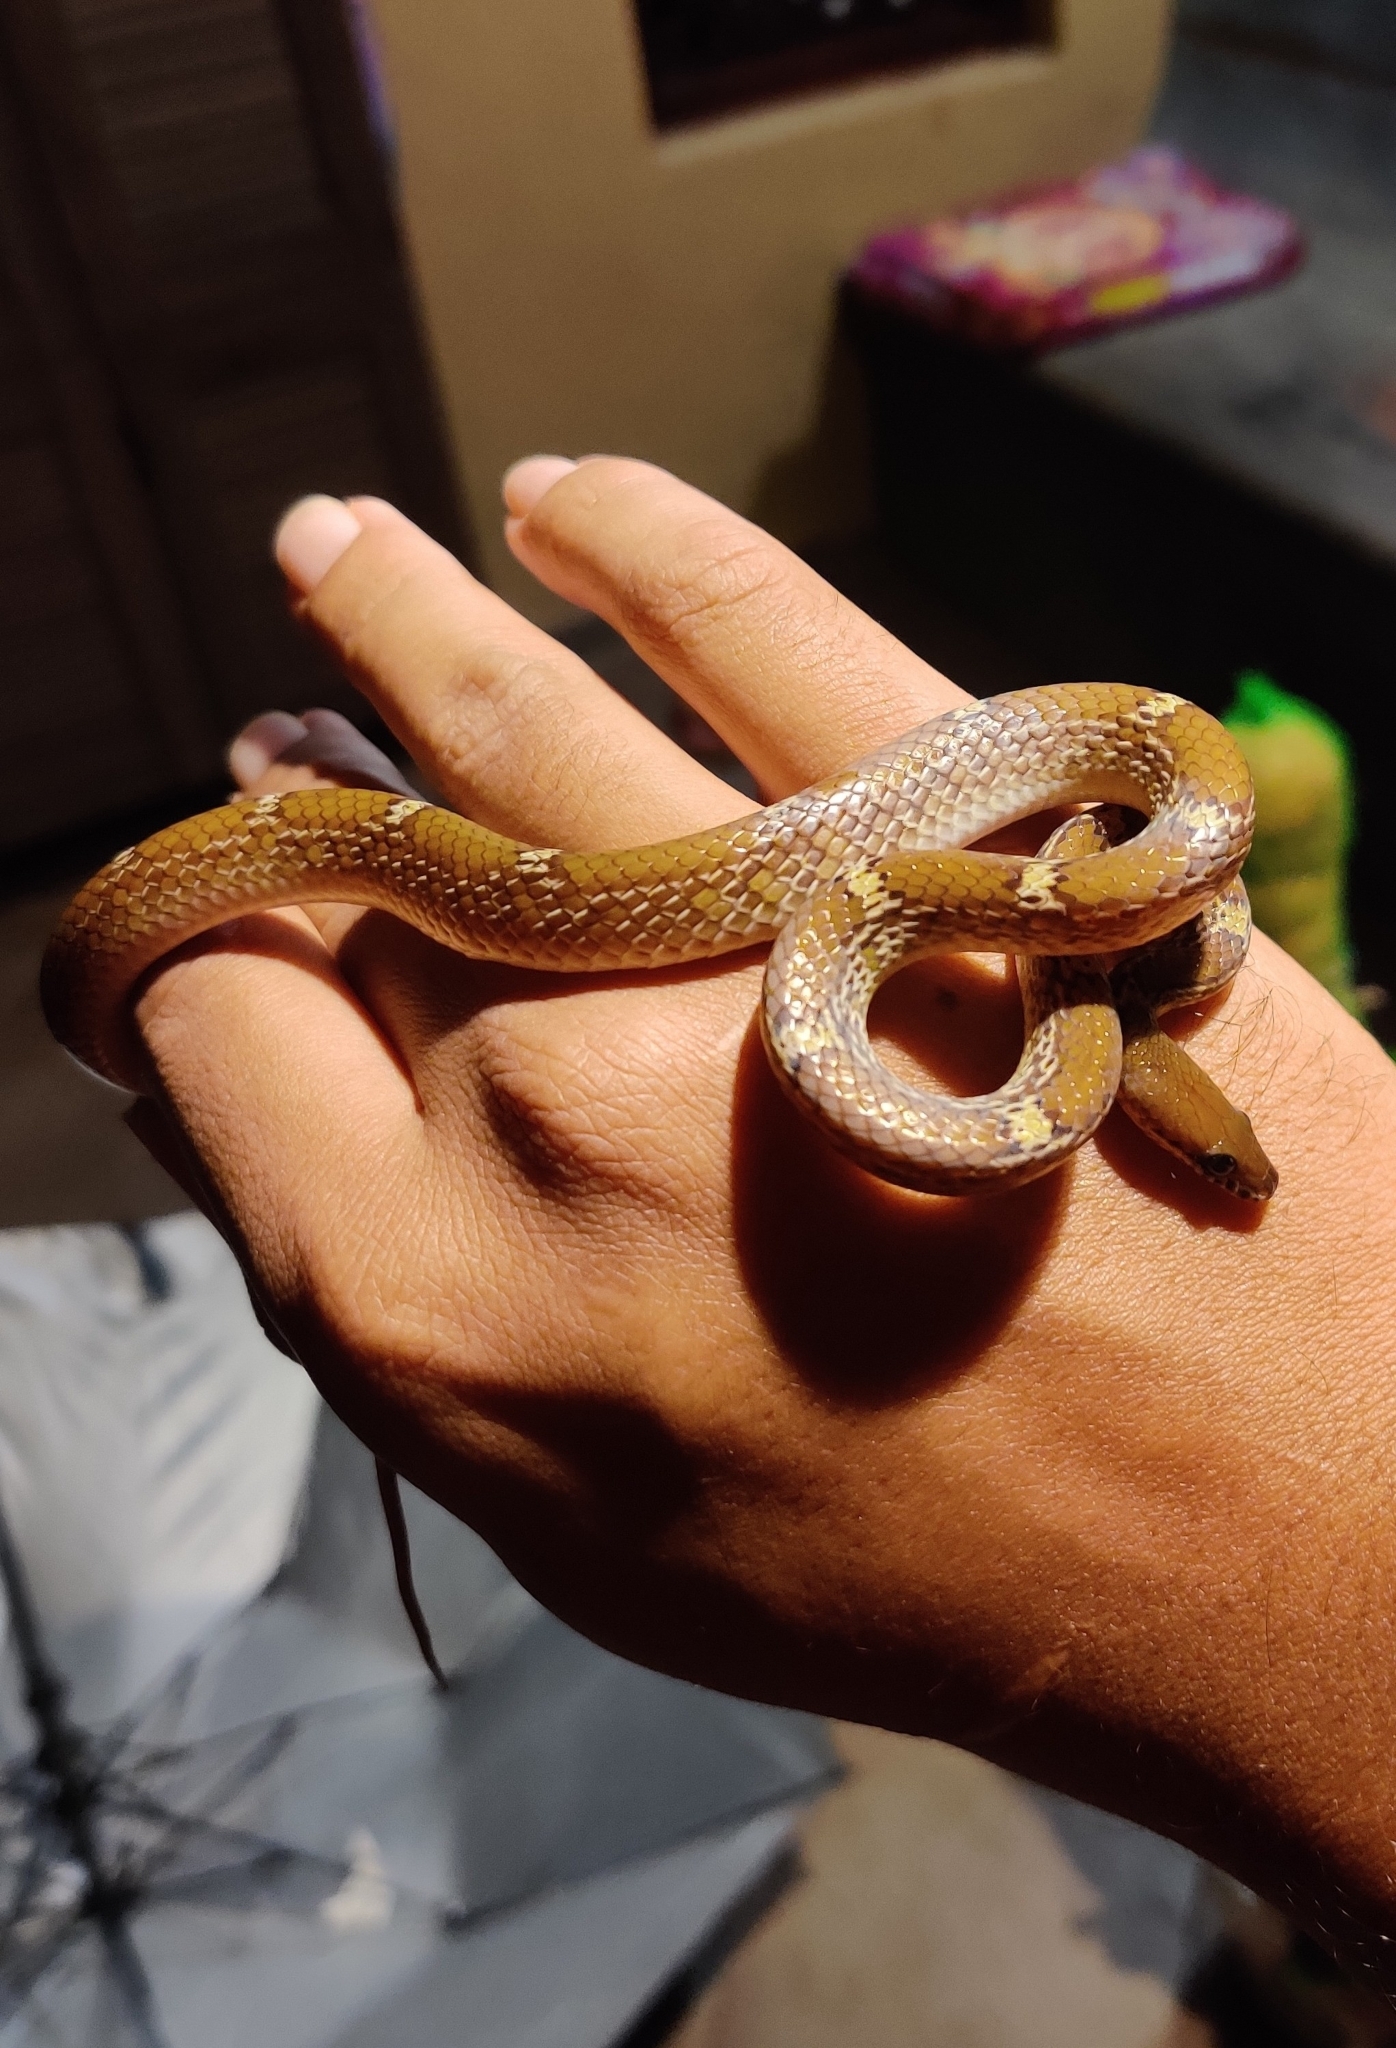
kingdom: Animalia
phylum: Chordata
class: Squamata
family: Colubridae
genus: Lycodon
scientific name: Lycodon fasciolatus
